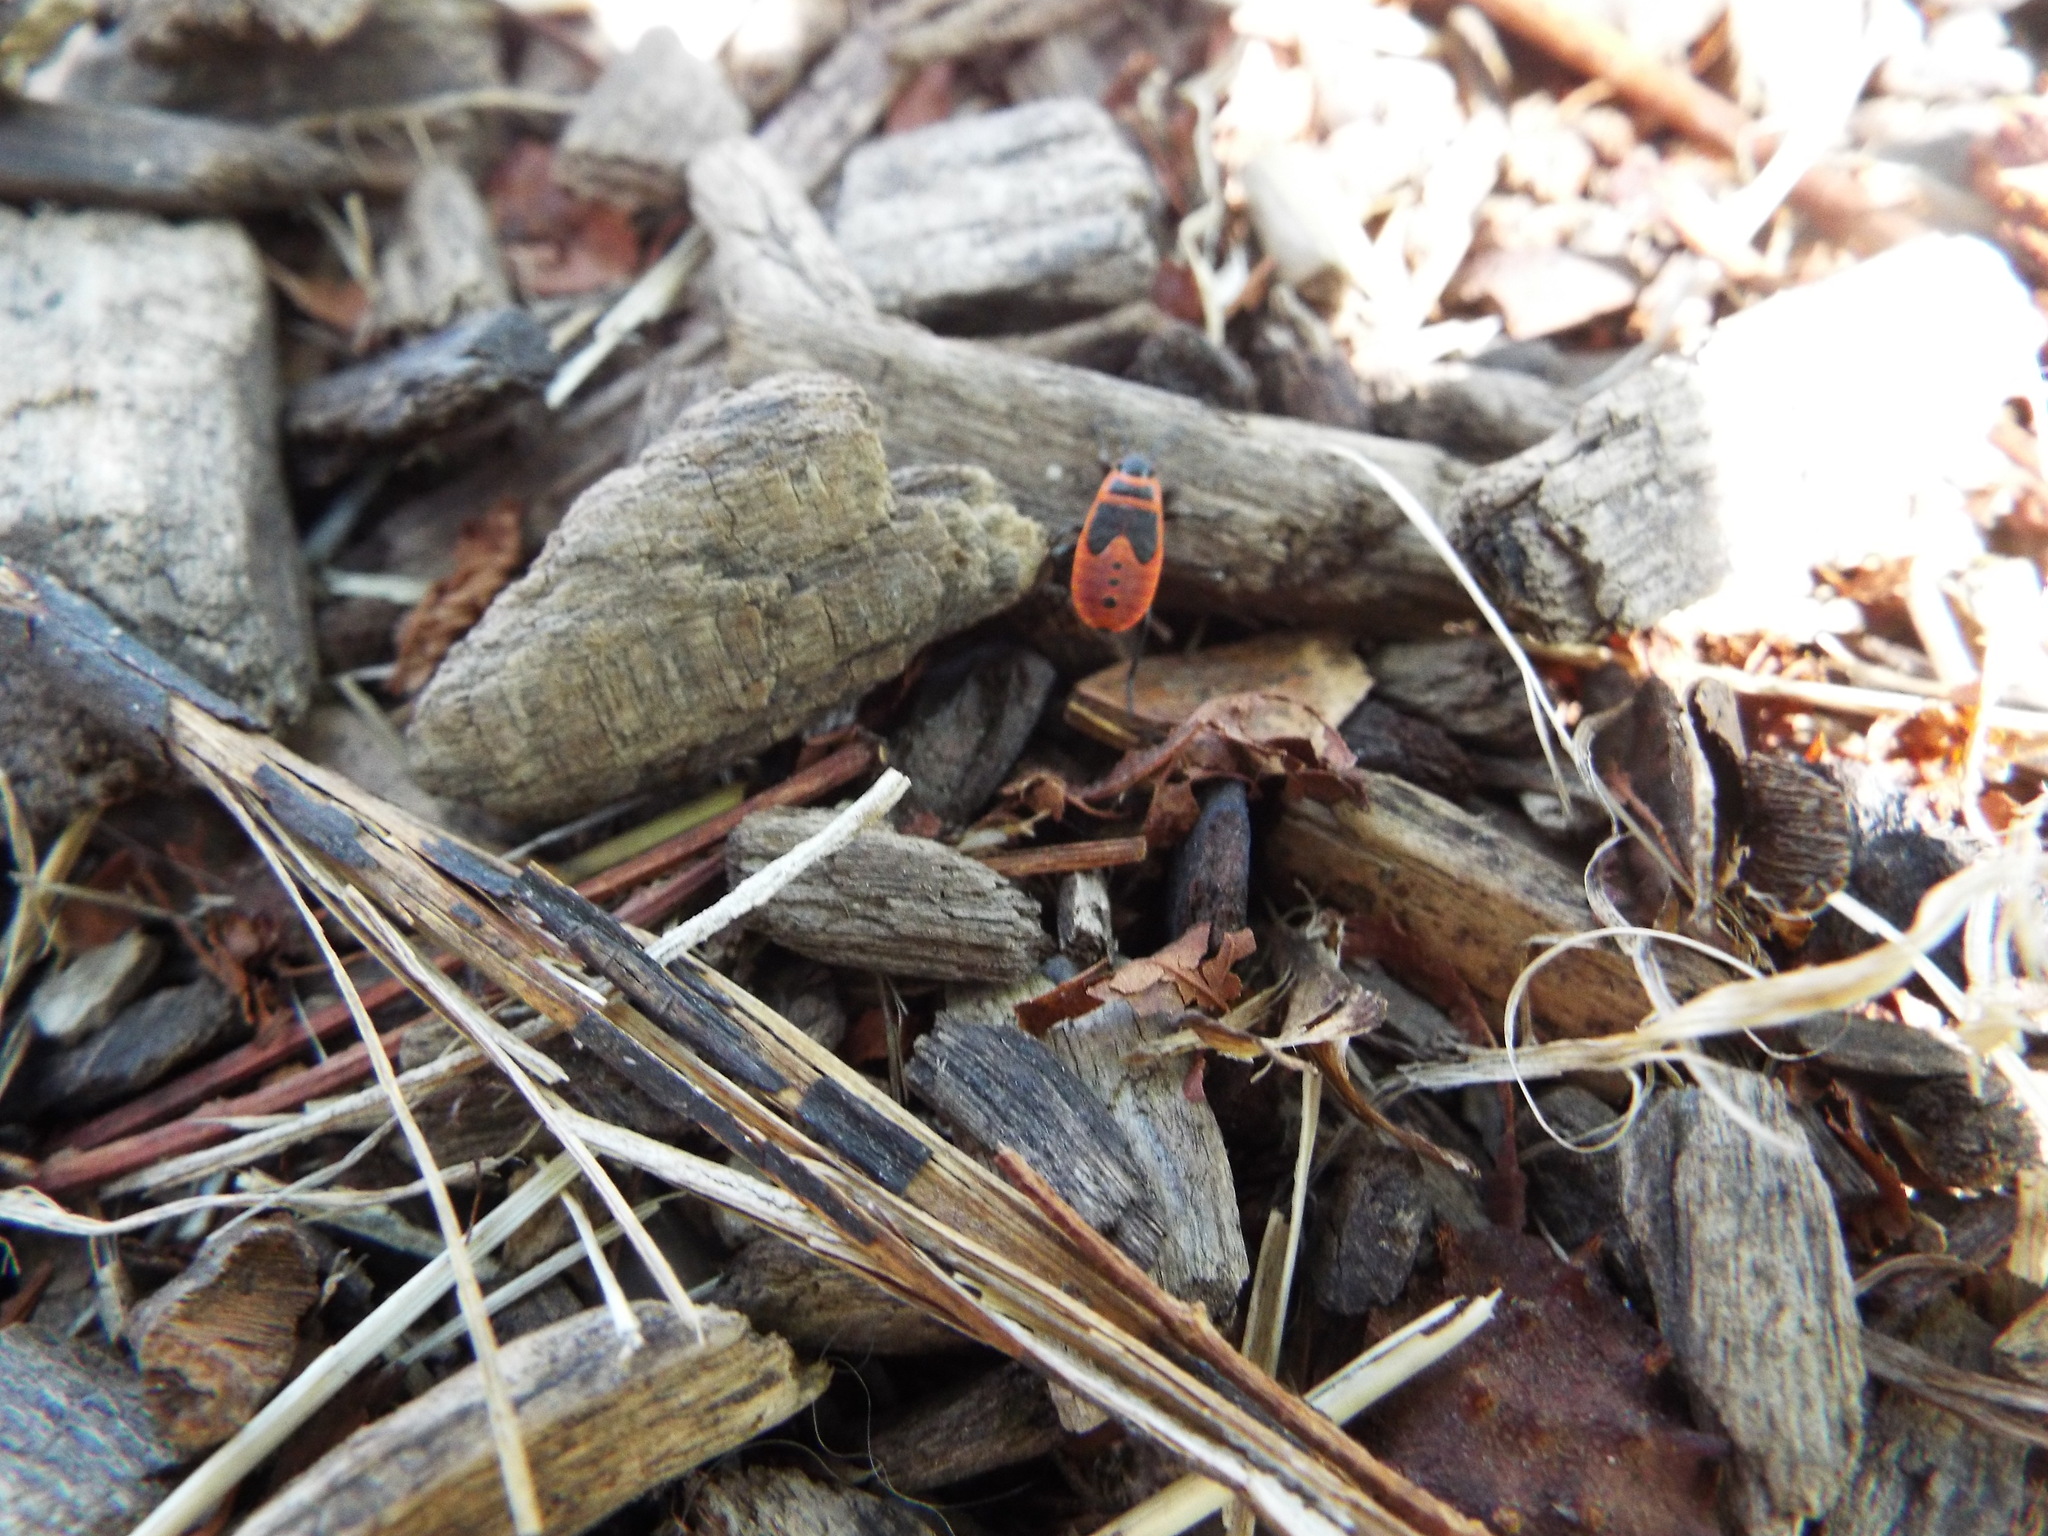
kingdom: Animalia
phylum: Arthropoda
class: Insecta
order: Hemiptera
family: Pyrrhocoridae
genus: Pyrrhocoris
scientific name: Pyrrhocoris apterus
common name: Firebug
